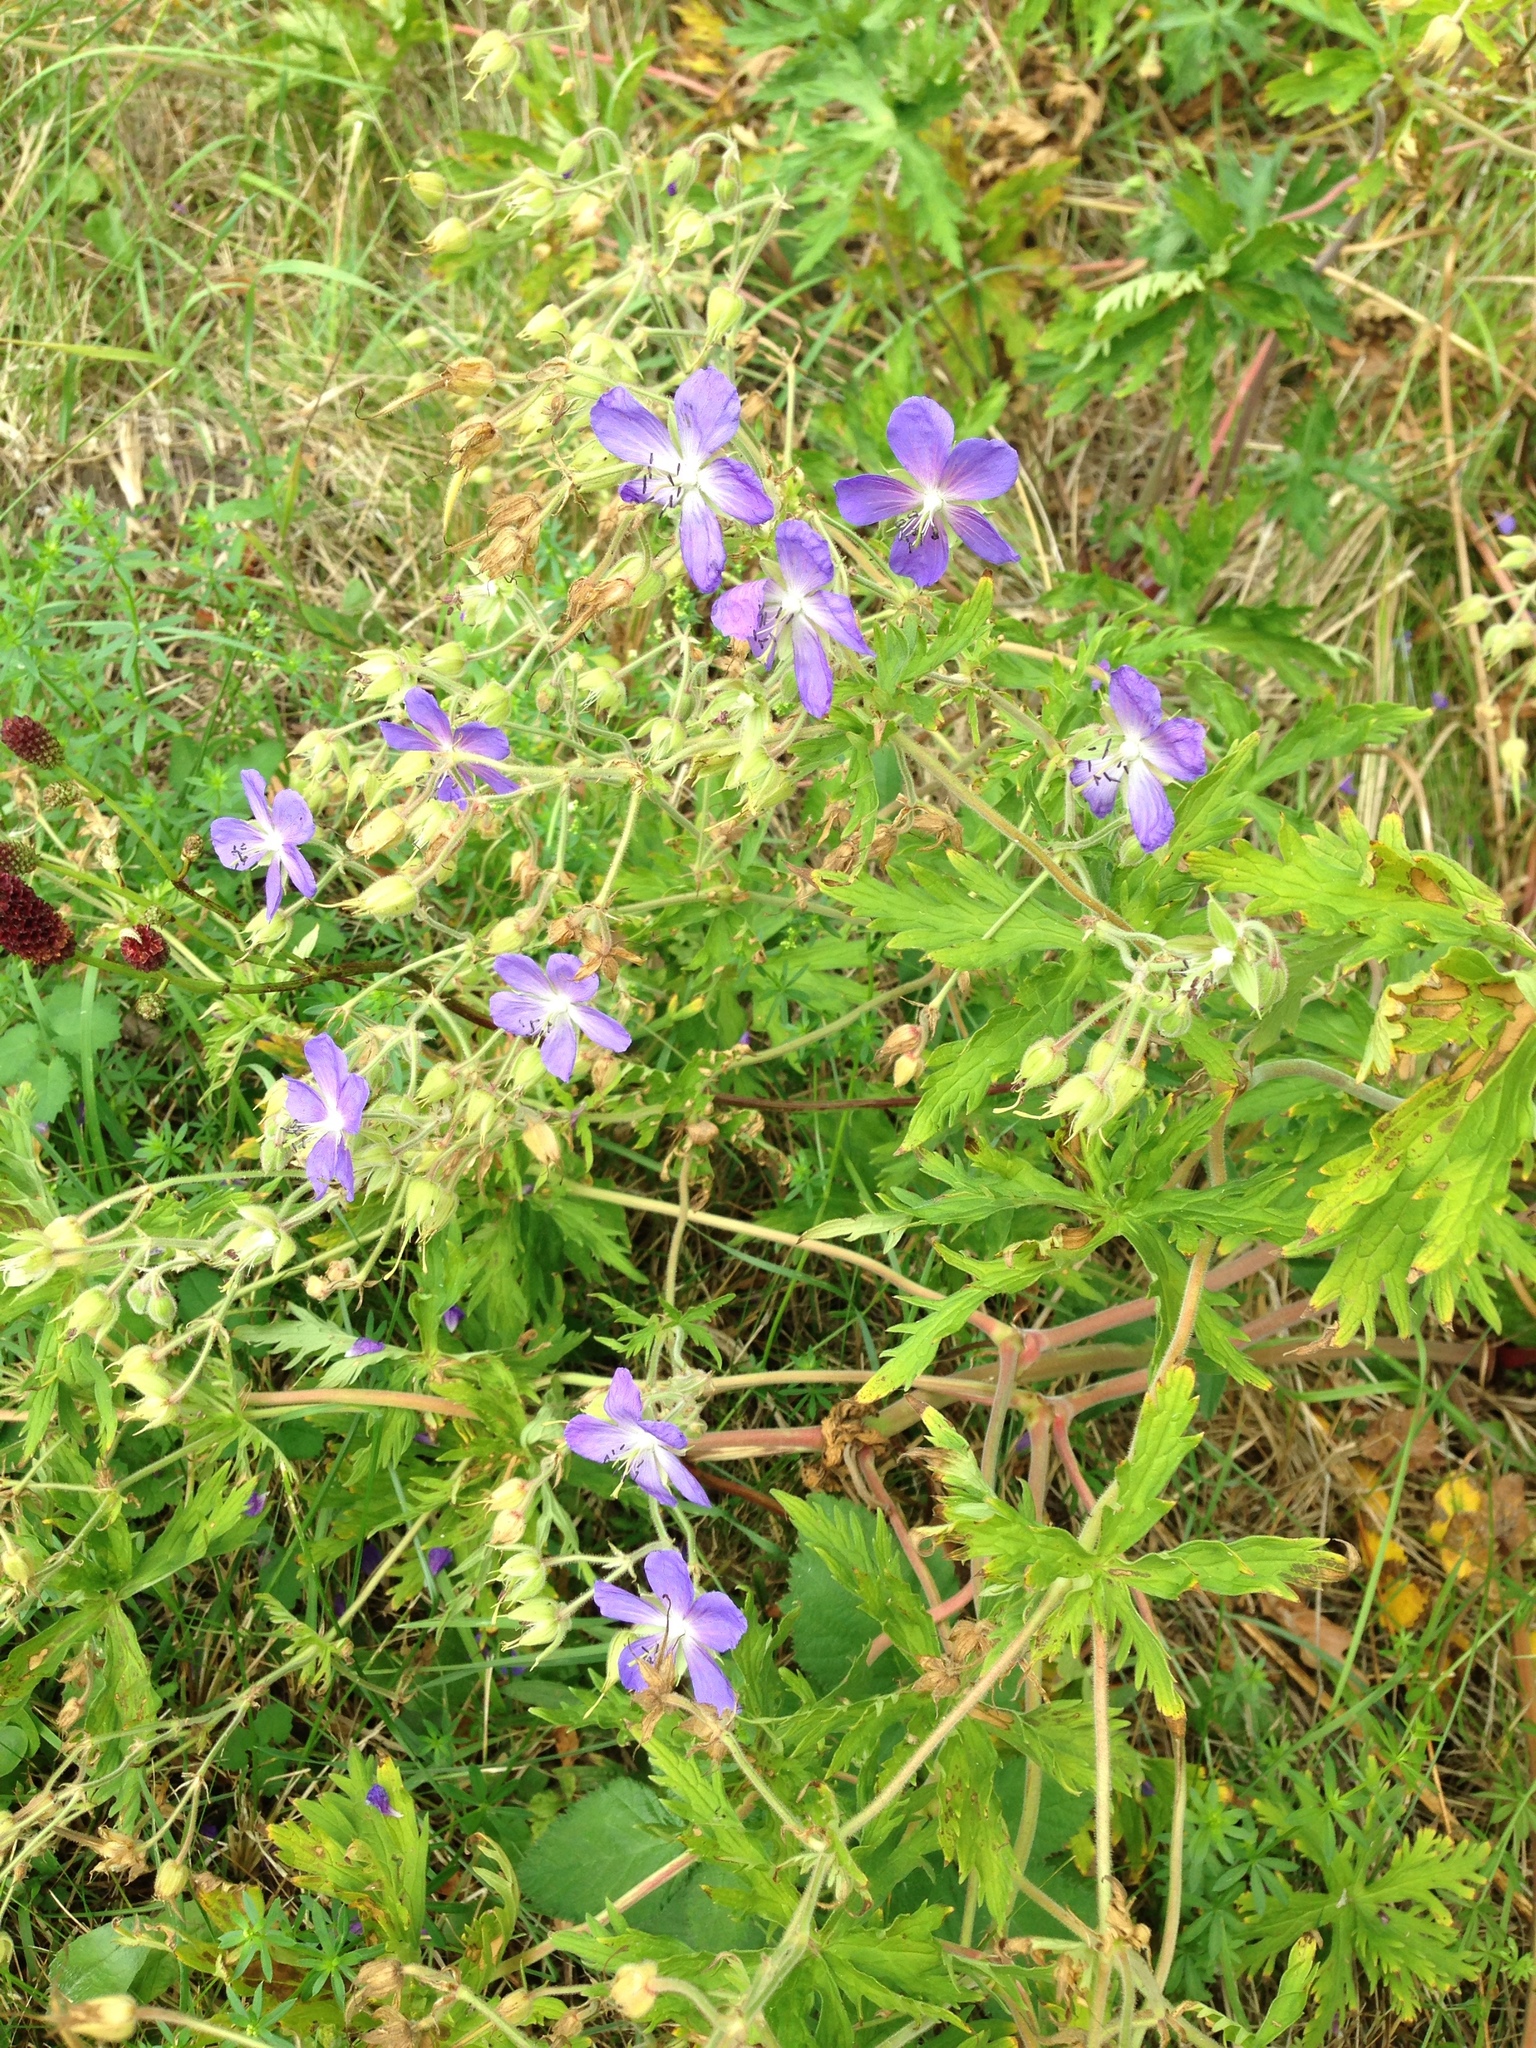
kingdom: Plantae
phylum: Tracheophyta
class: Magnoliopsida
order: Geraniales
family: Geraniaceae
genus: Geranium
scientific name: Geranium pratense
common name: Meadow crane's-bill
